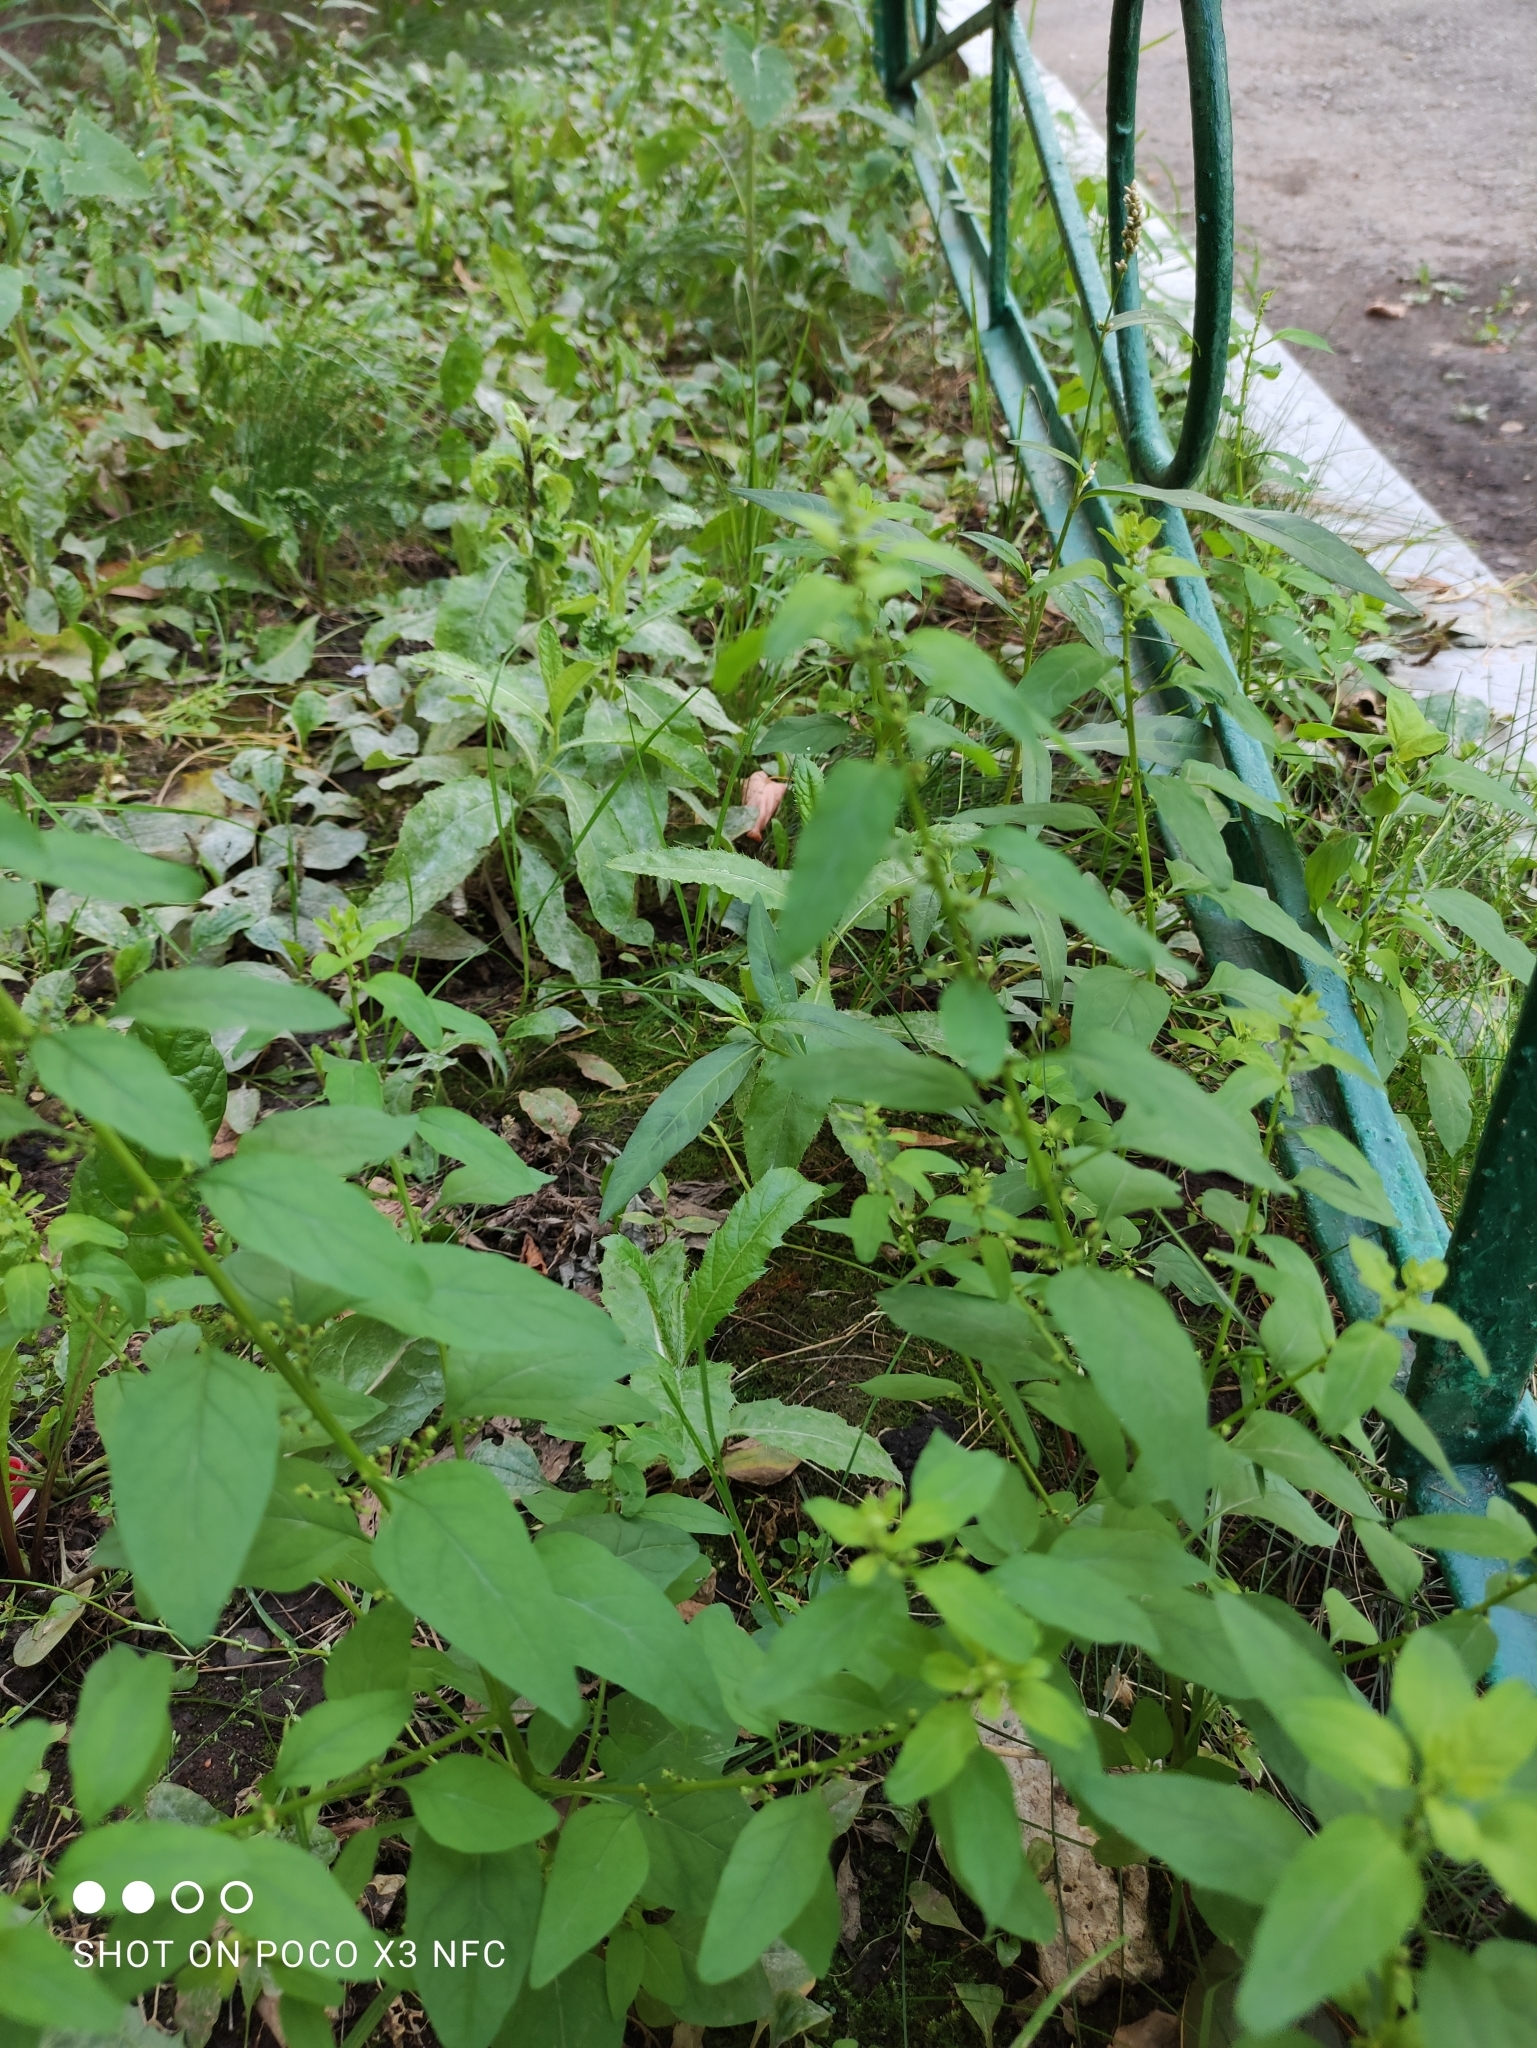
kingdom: Plantae
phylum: Tracheophyta
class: Magnoliopsida
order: Caryophyllales
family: Amaranthaceae
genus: Lipandra
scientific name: Lipandra polysperma
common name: Many-seed goosefoot
